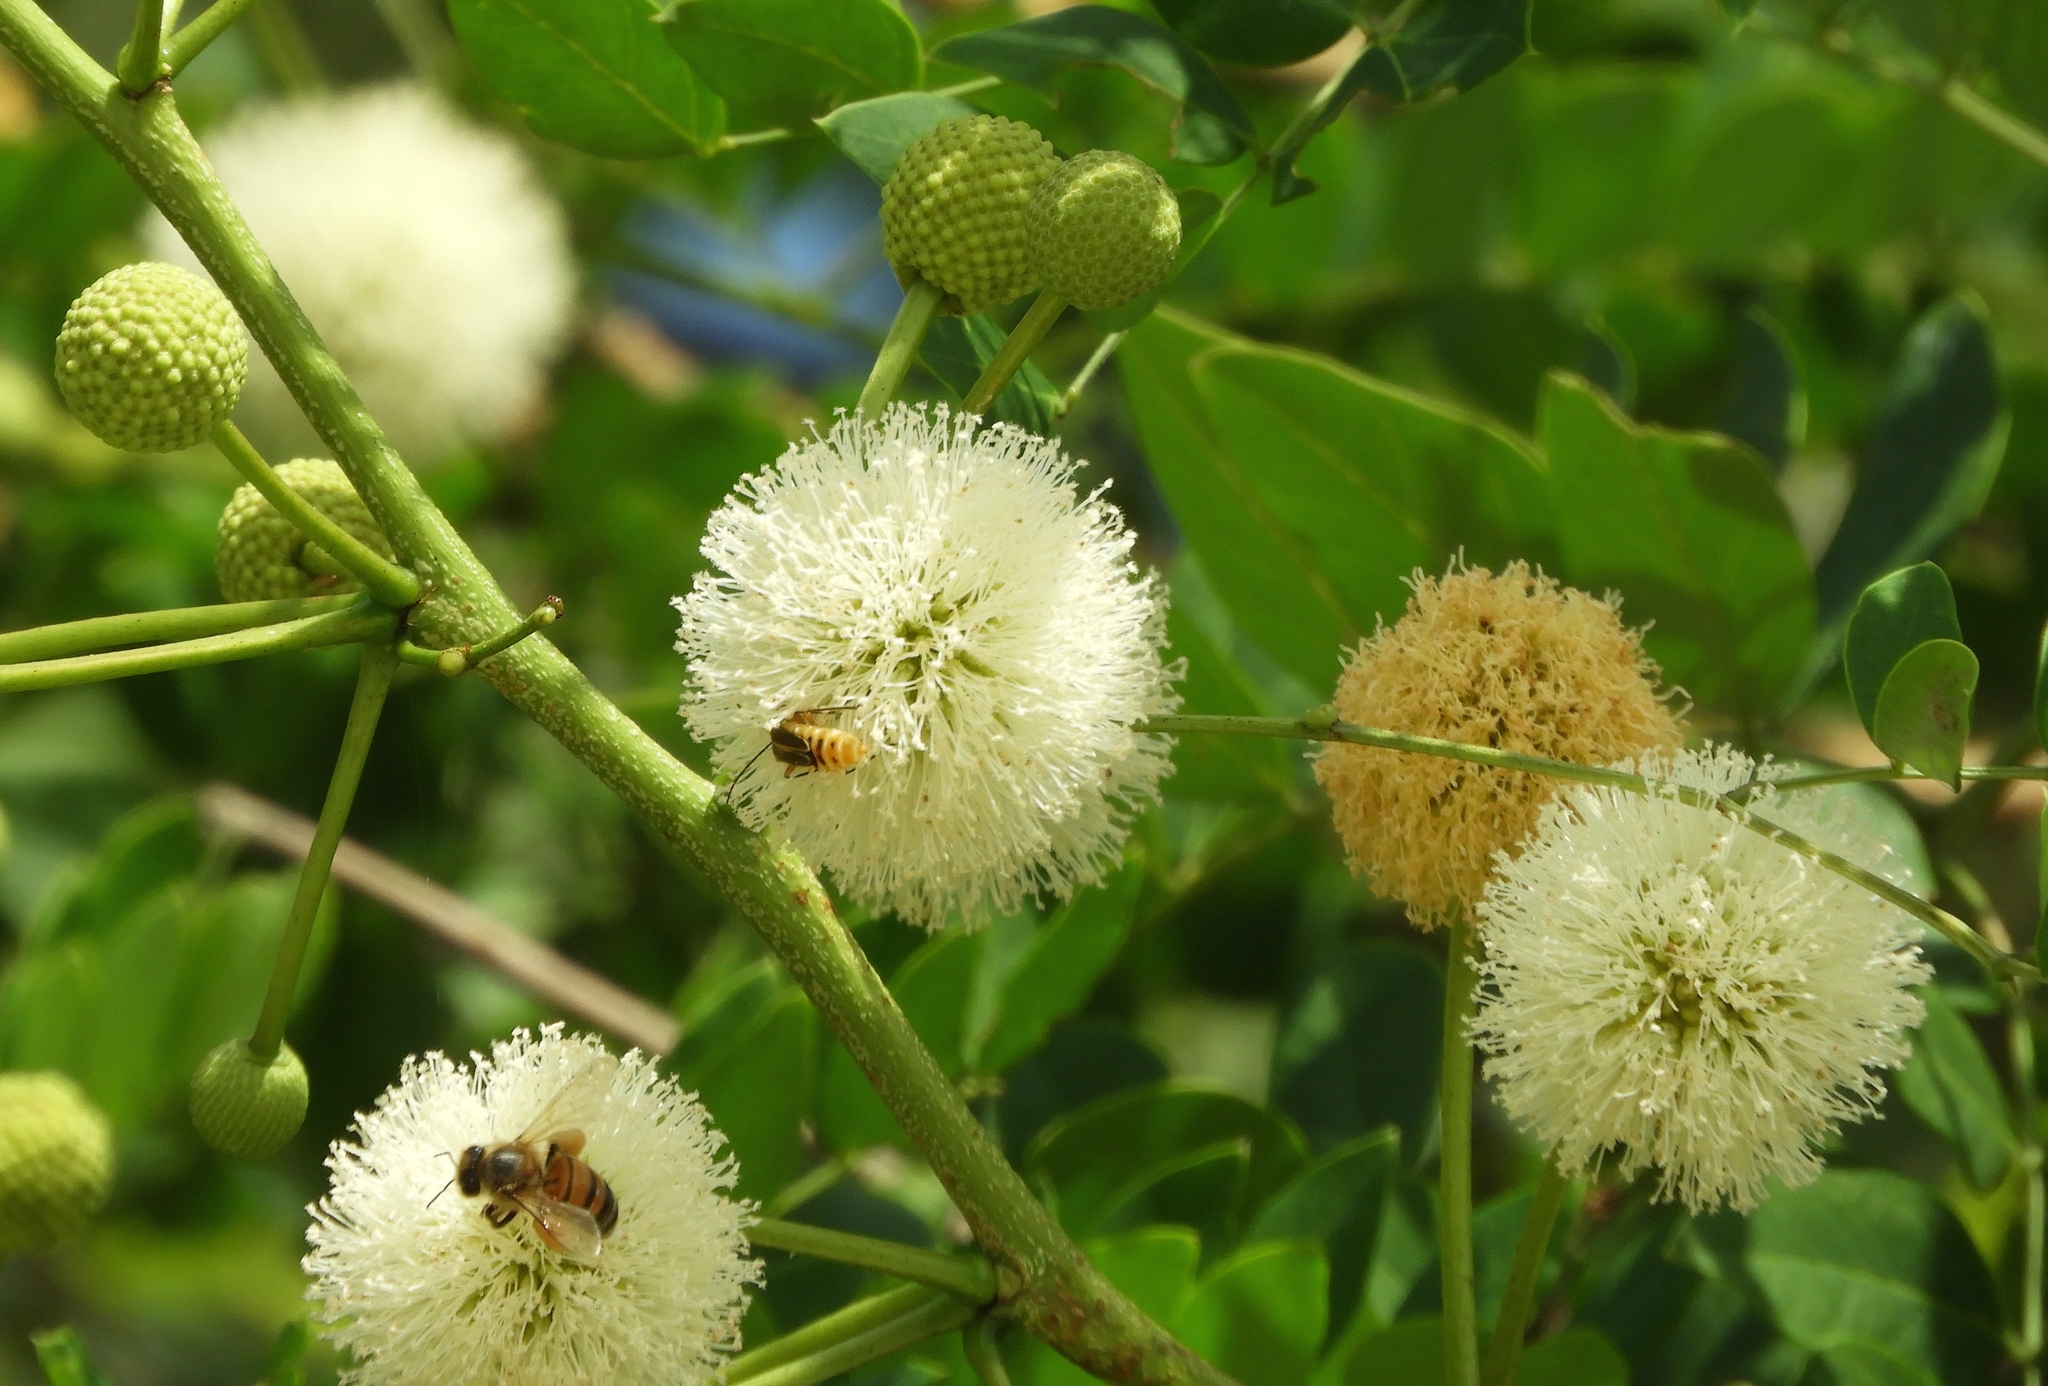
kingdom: Animalia
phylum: Arthropoda
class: Insecta
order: Hymenoptera
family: Apidae
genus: Apis
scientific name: Apis mellifera
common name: Honey bee
